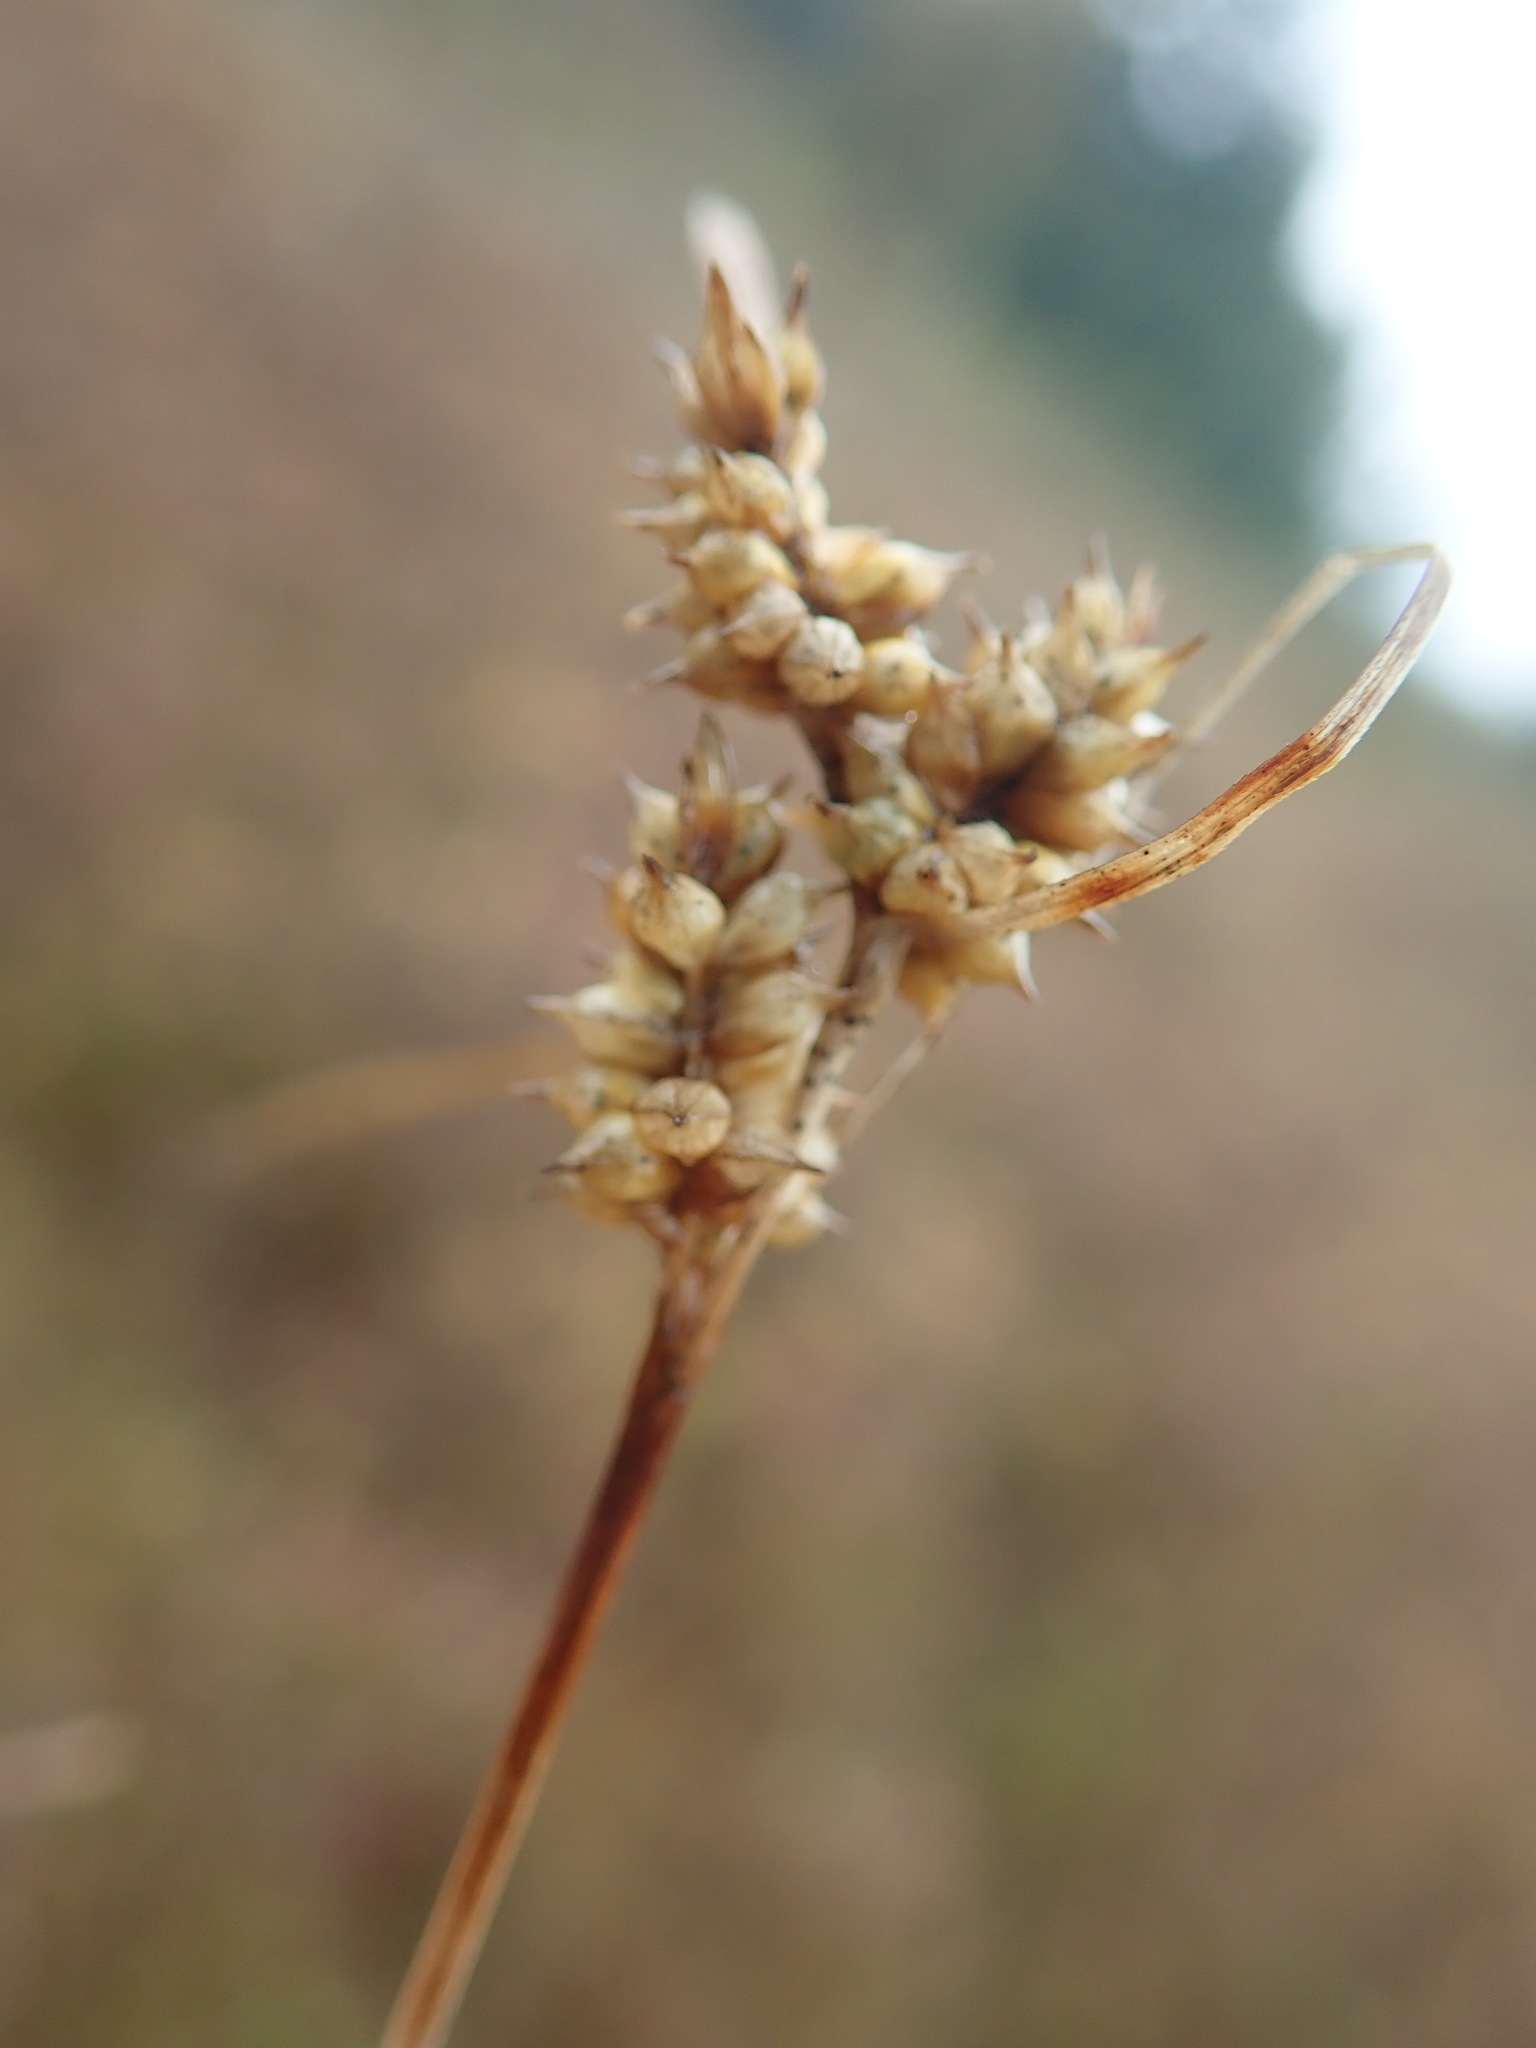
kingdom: Plantae
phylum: Tracheophyta
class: Liliopsida
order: Poales
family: Cyperaceae
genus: Carex
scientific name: Carex
